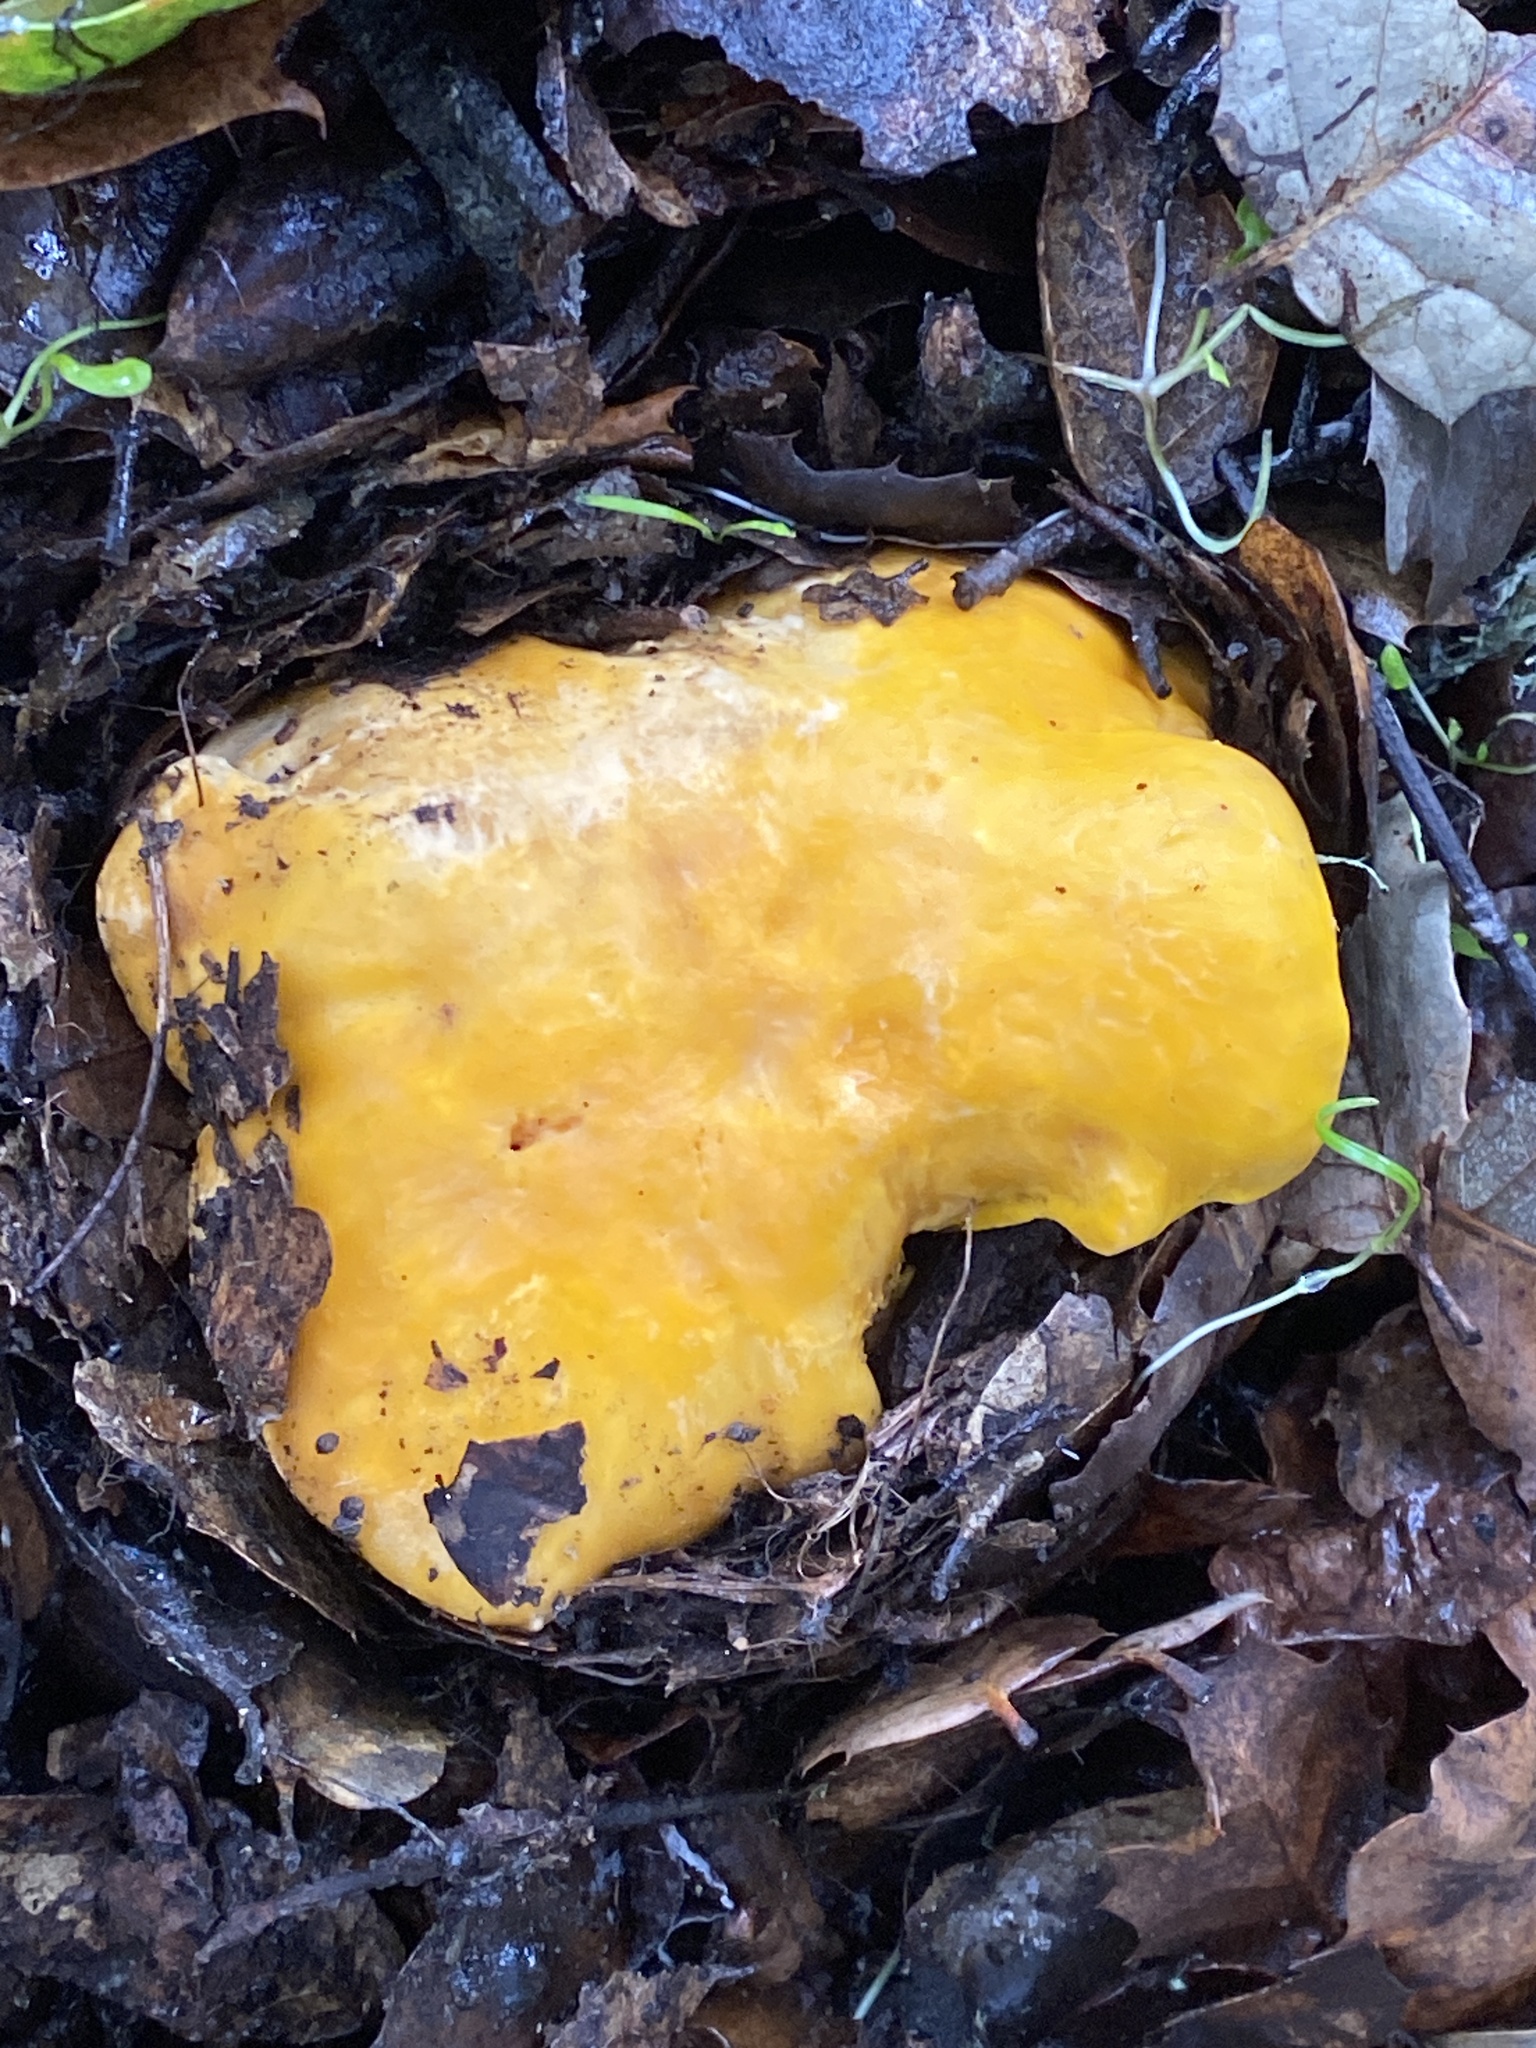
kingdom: Fungi
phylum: Basidiomycota
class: Agaricomycetes
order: Cantharellales
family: Hydnaceae
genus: Cantharellus
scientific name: Cantharellus californicus
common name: California golden chanterelle
